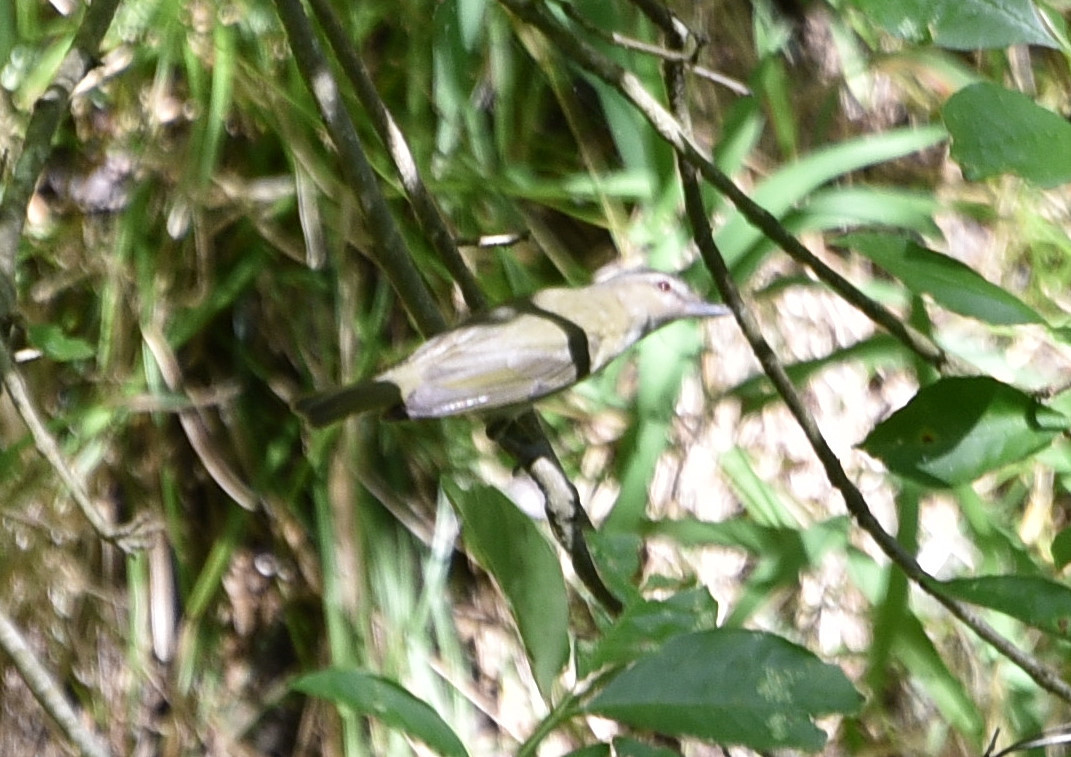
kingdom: Animalia
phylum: Chordata
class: Aves
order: Passeriformes
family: Vireonidae
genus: Vireo
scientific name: Vireo olivaceus
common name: Red-eyed vireo
